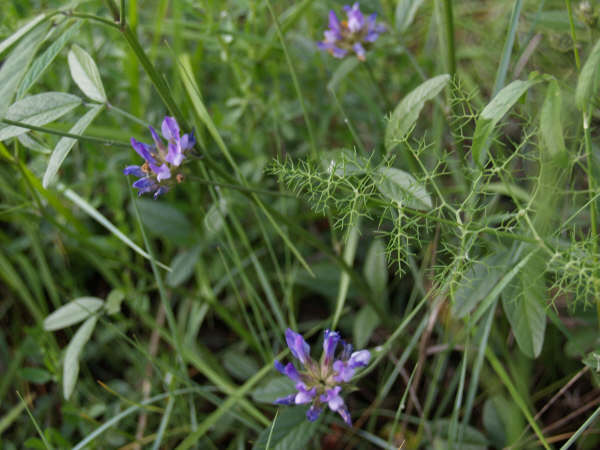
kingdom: Plantae
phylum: Tracheophyta
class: Magnoliopsida
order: Fabales
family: Fabaceae
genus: Bituminaria
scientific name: Bituminaria bituminosa
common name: Arabian pea
